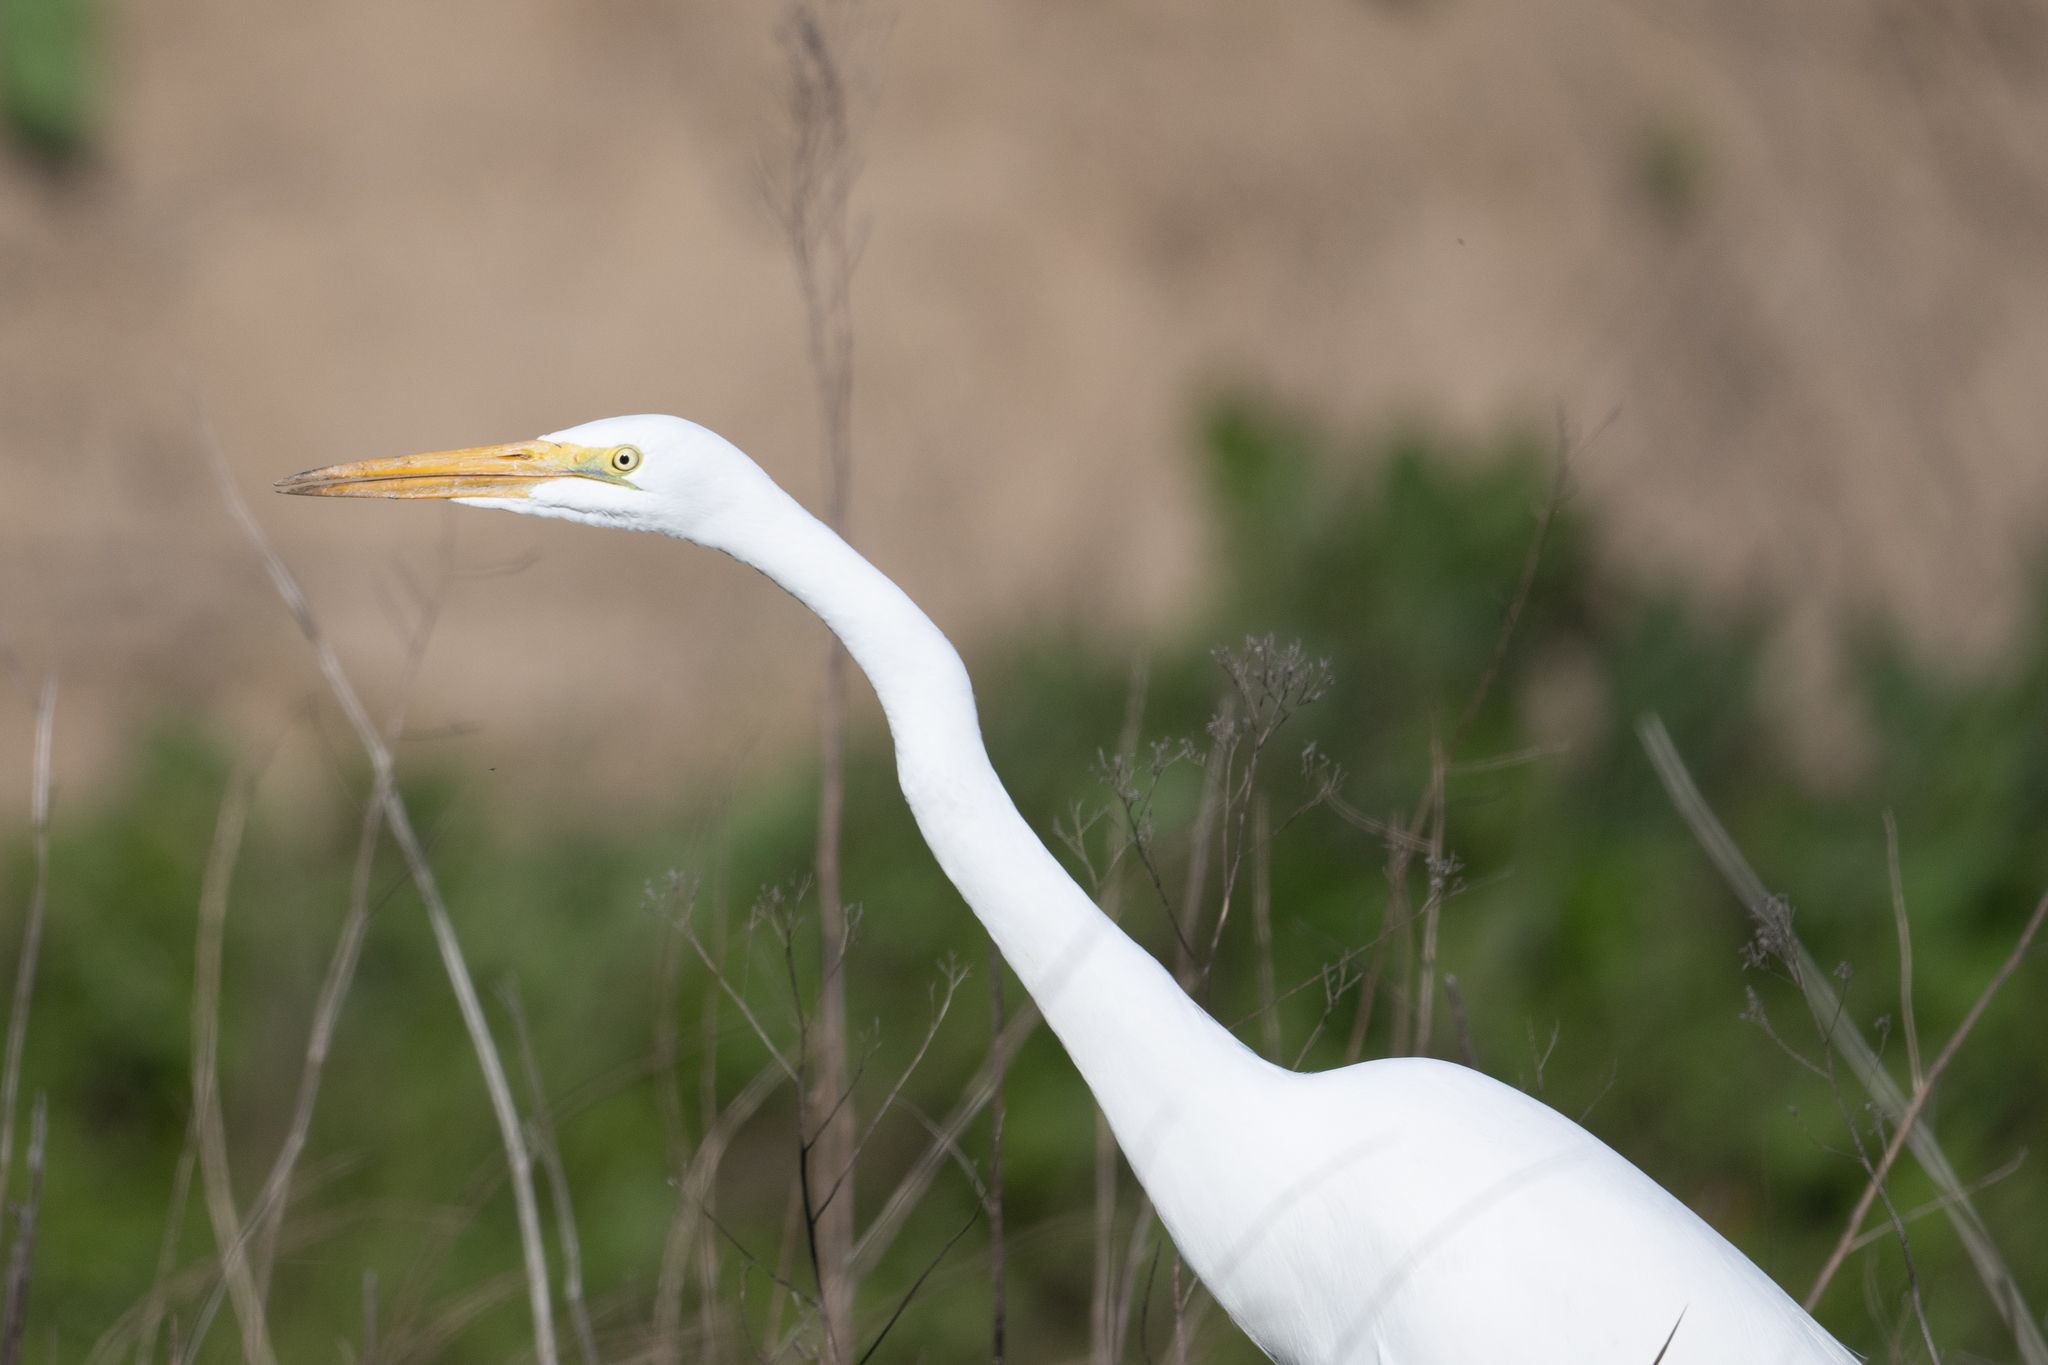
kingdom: Animalia
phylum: Chordata
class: Aves
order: Pelecaniformes
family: Ardeidae
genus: Ardea
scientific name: Ardea alba
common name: Great egret
